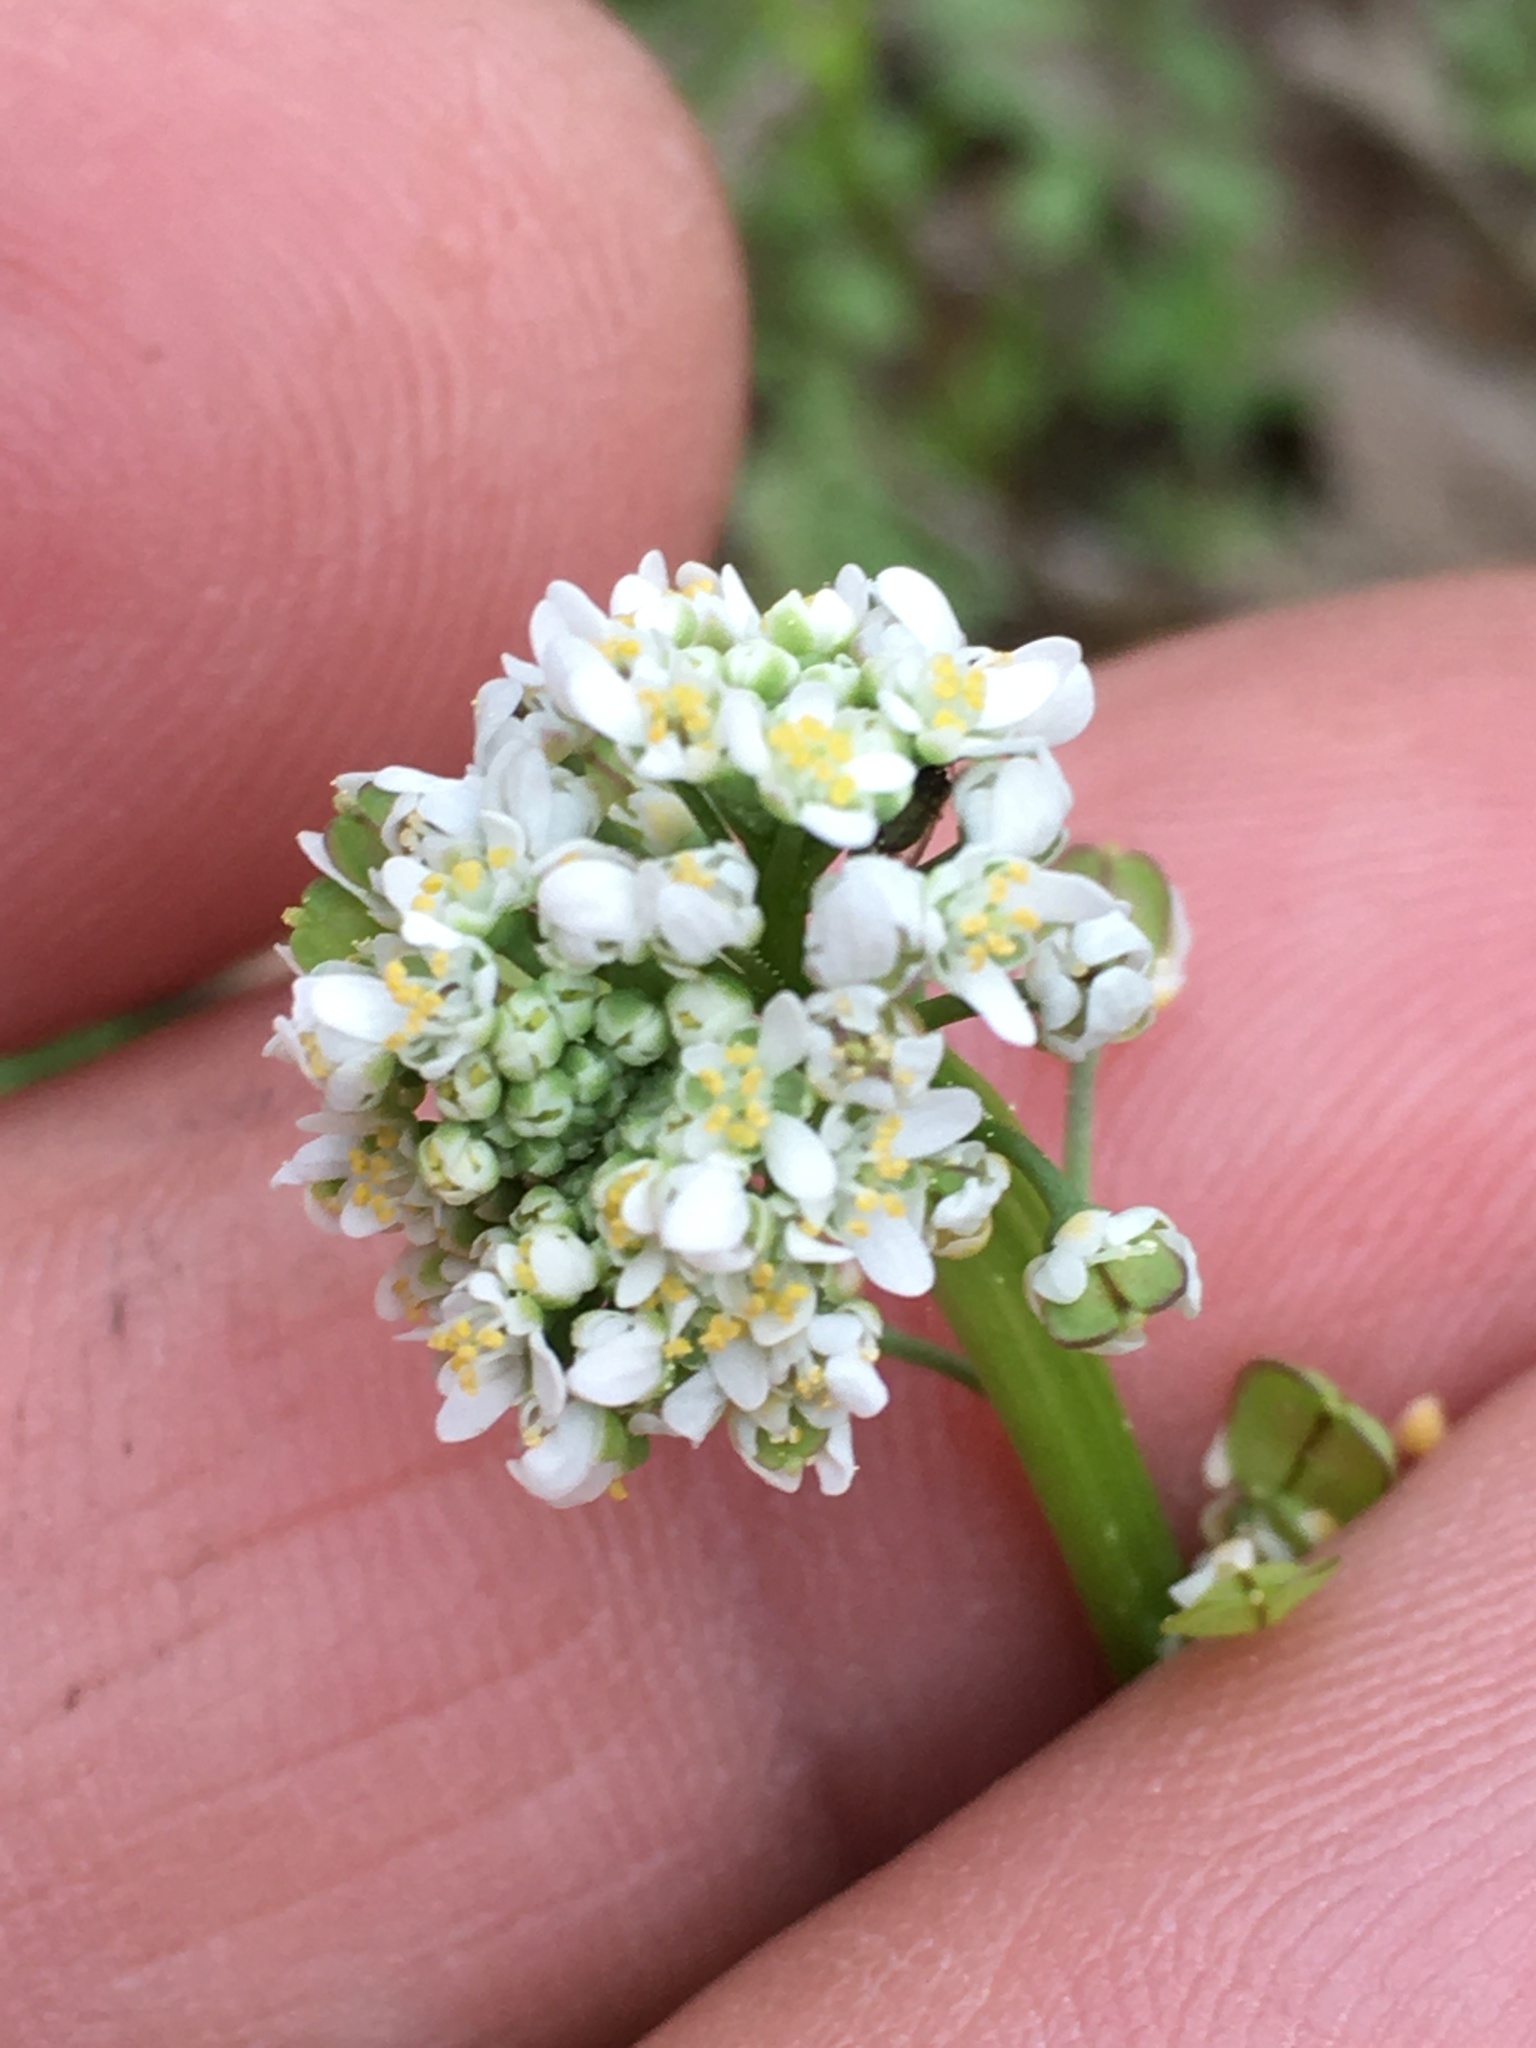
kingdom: Plantae
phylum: Tracheophyta
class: Magnoliopsida
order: Brassicales
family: Brassicaceae
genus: Teesdalia
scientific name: Teesdalia nudicaulis
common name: Shepherd's cress
